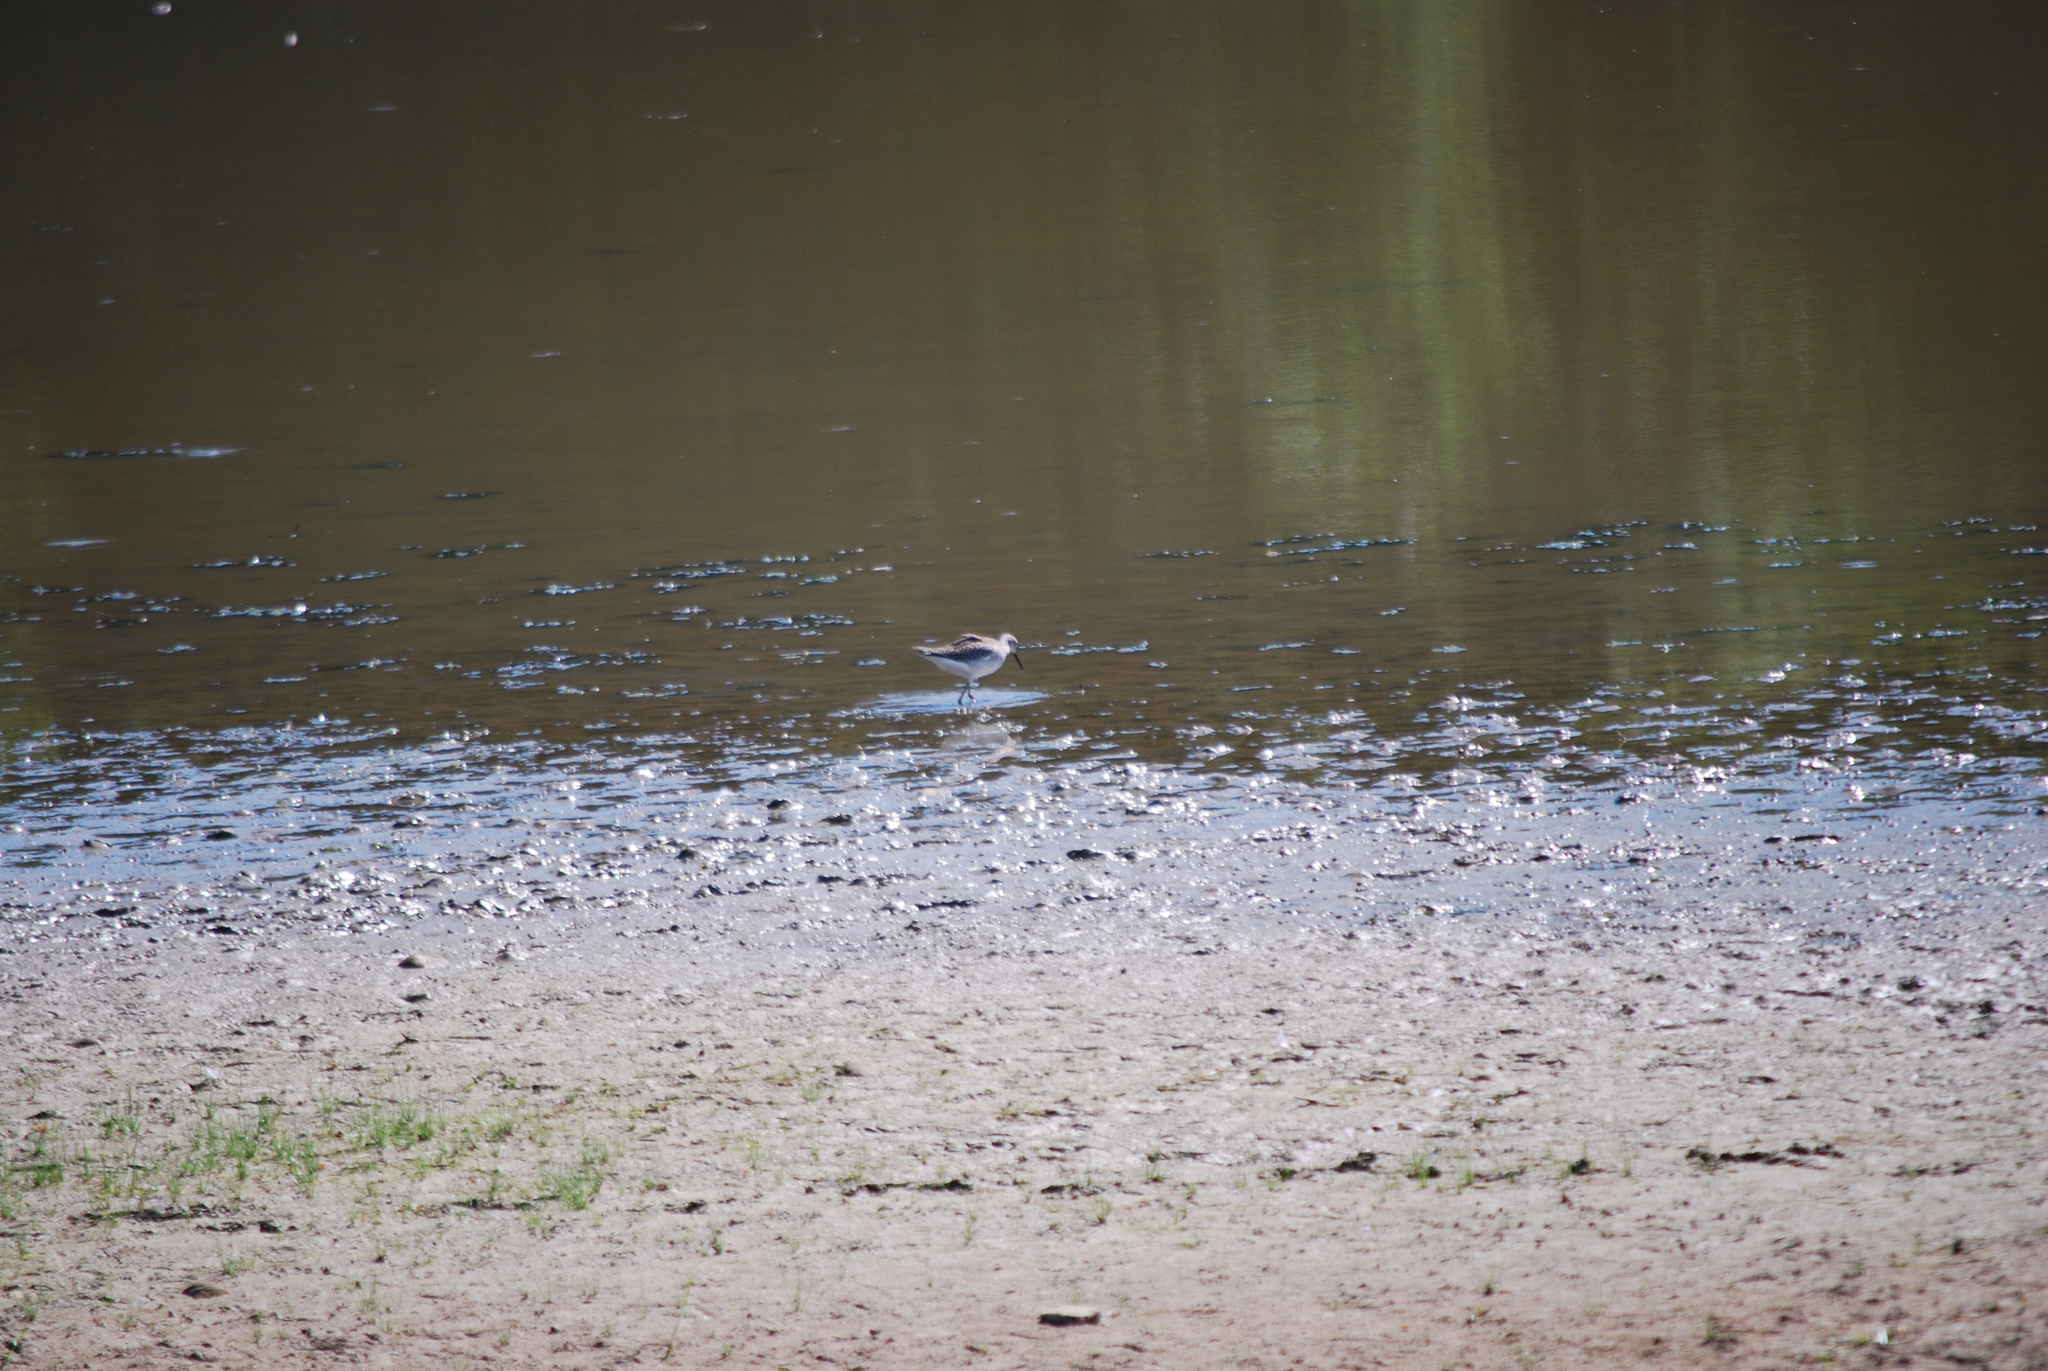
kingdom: Animalia
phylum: Chordata
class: Aves
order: Charadriiformes
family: Scolopacidae
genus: Tringa
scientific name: Tringa flavipes
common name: Lesser yellowlegs
